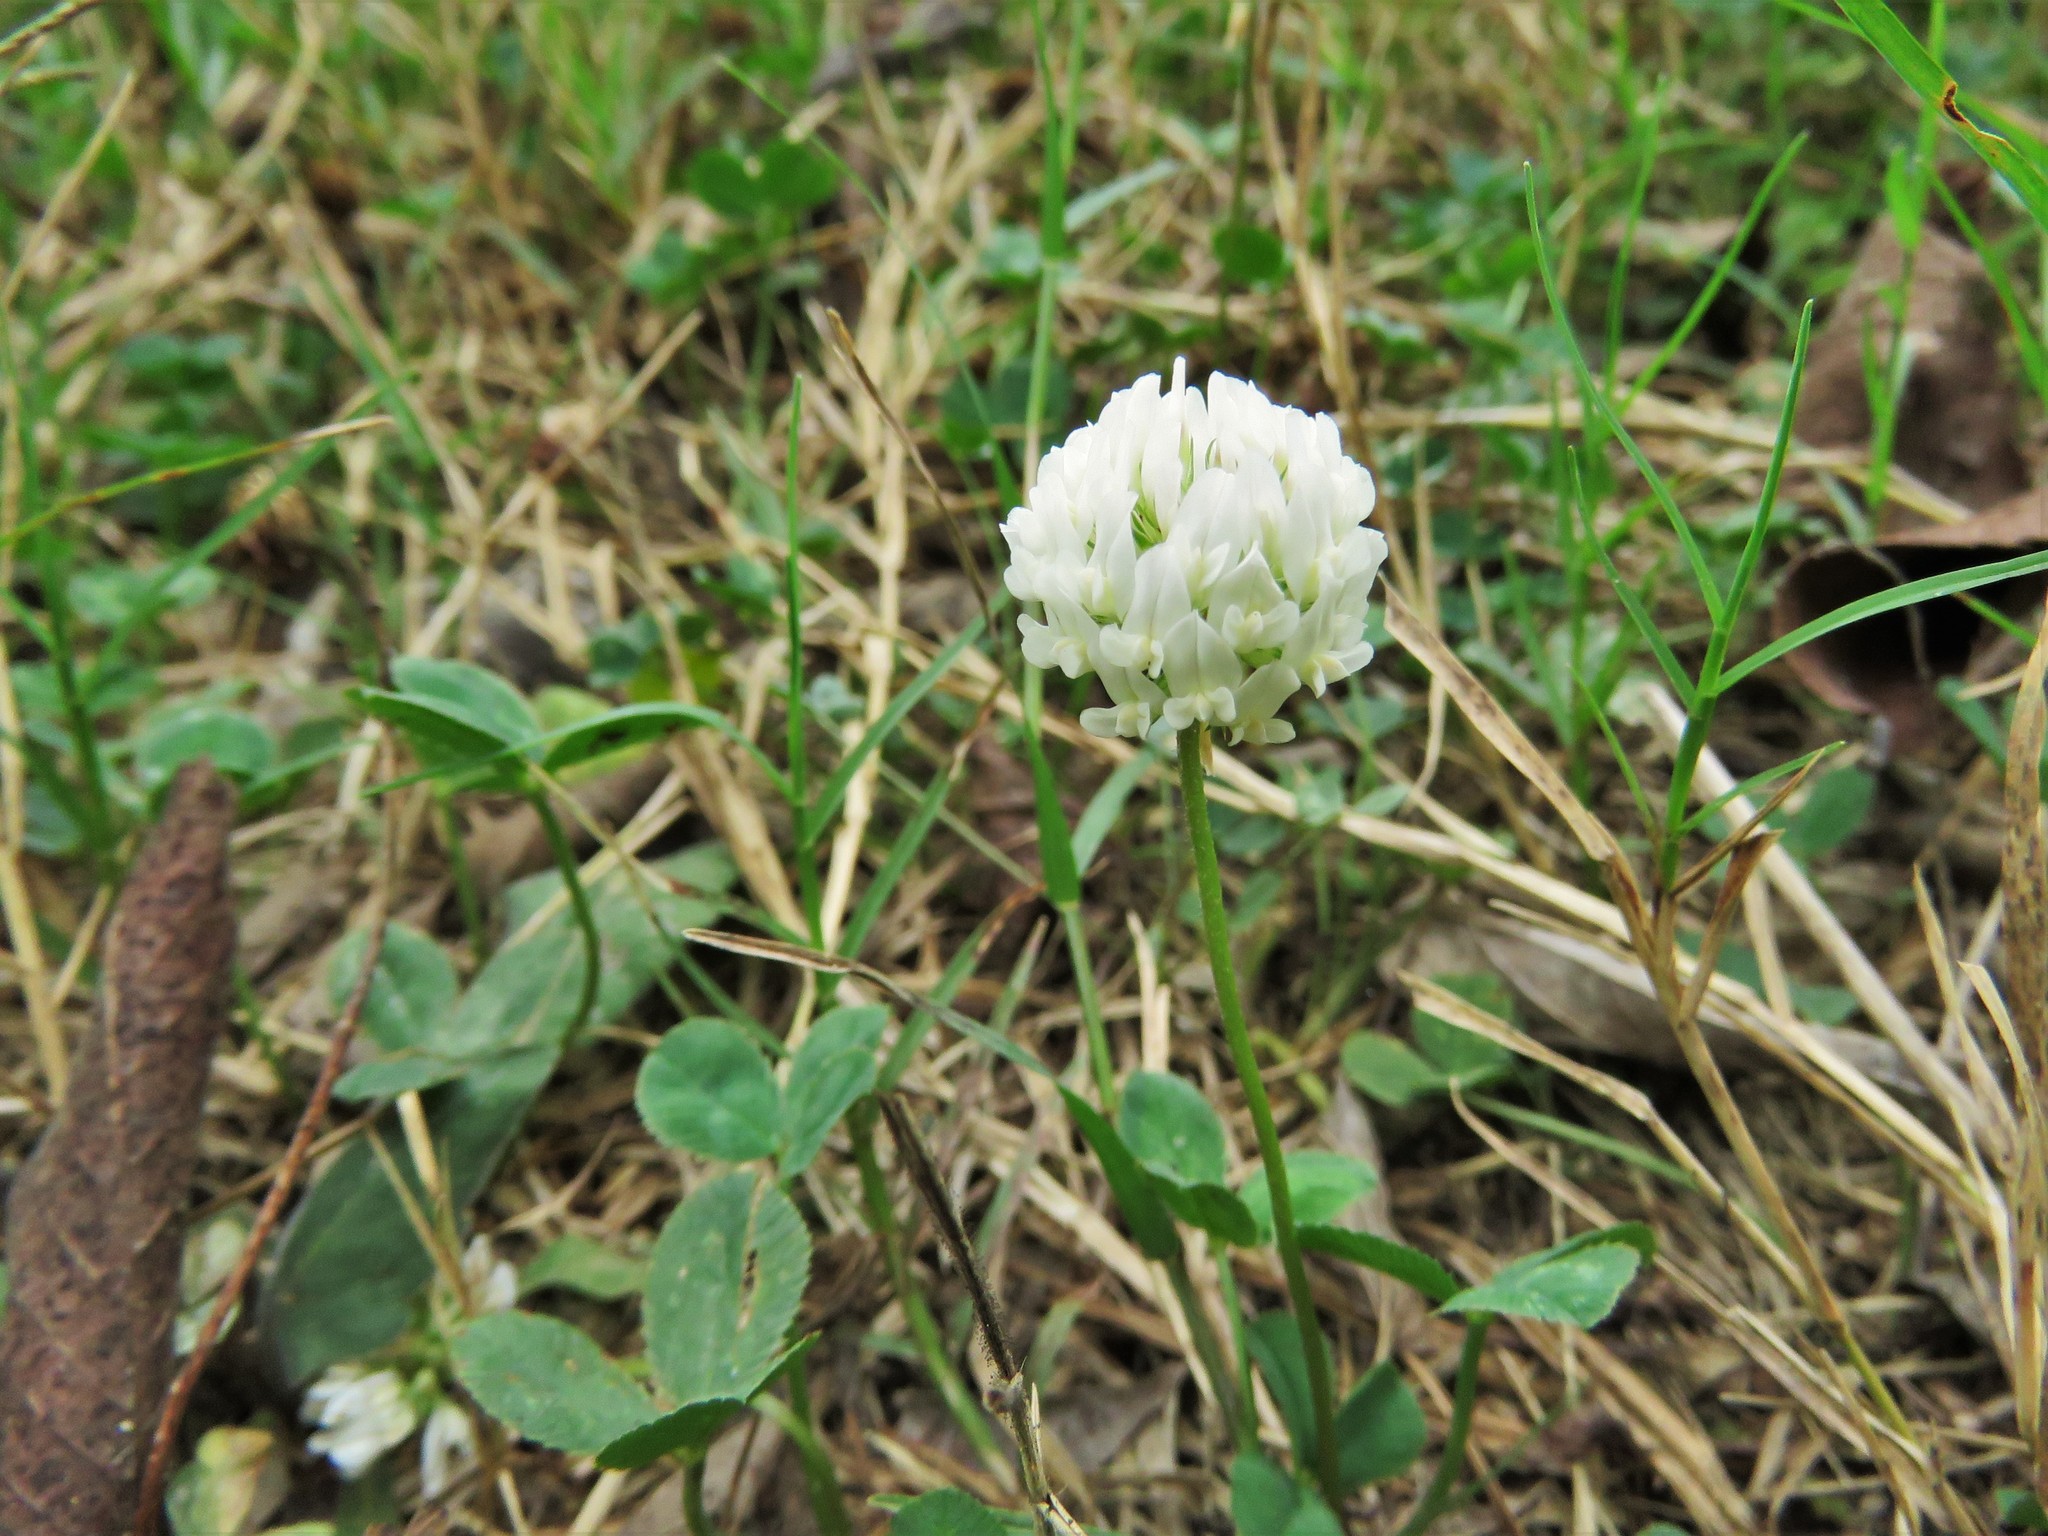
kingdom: Plantae
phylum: Tracheophyta
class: Magnoliopsida
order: Fabales
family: Fabaceae
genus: Trifolium
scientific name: Trifolium repens
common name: White clover
